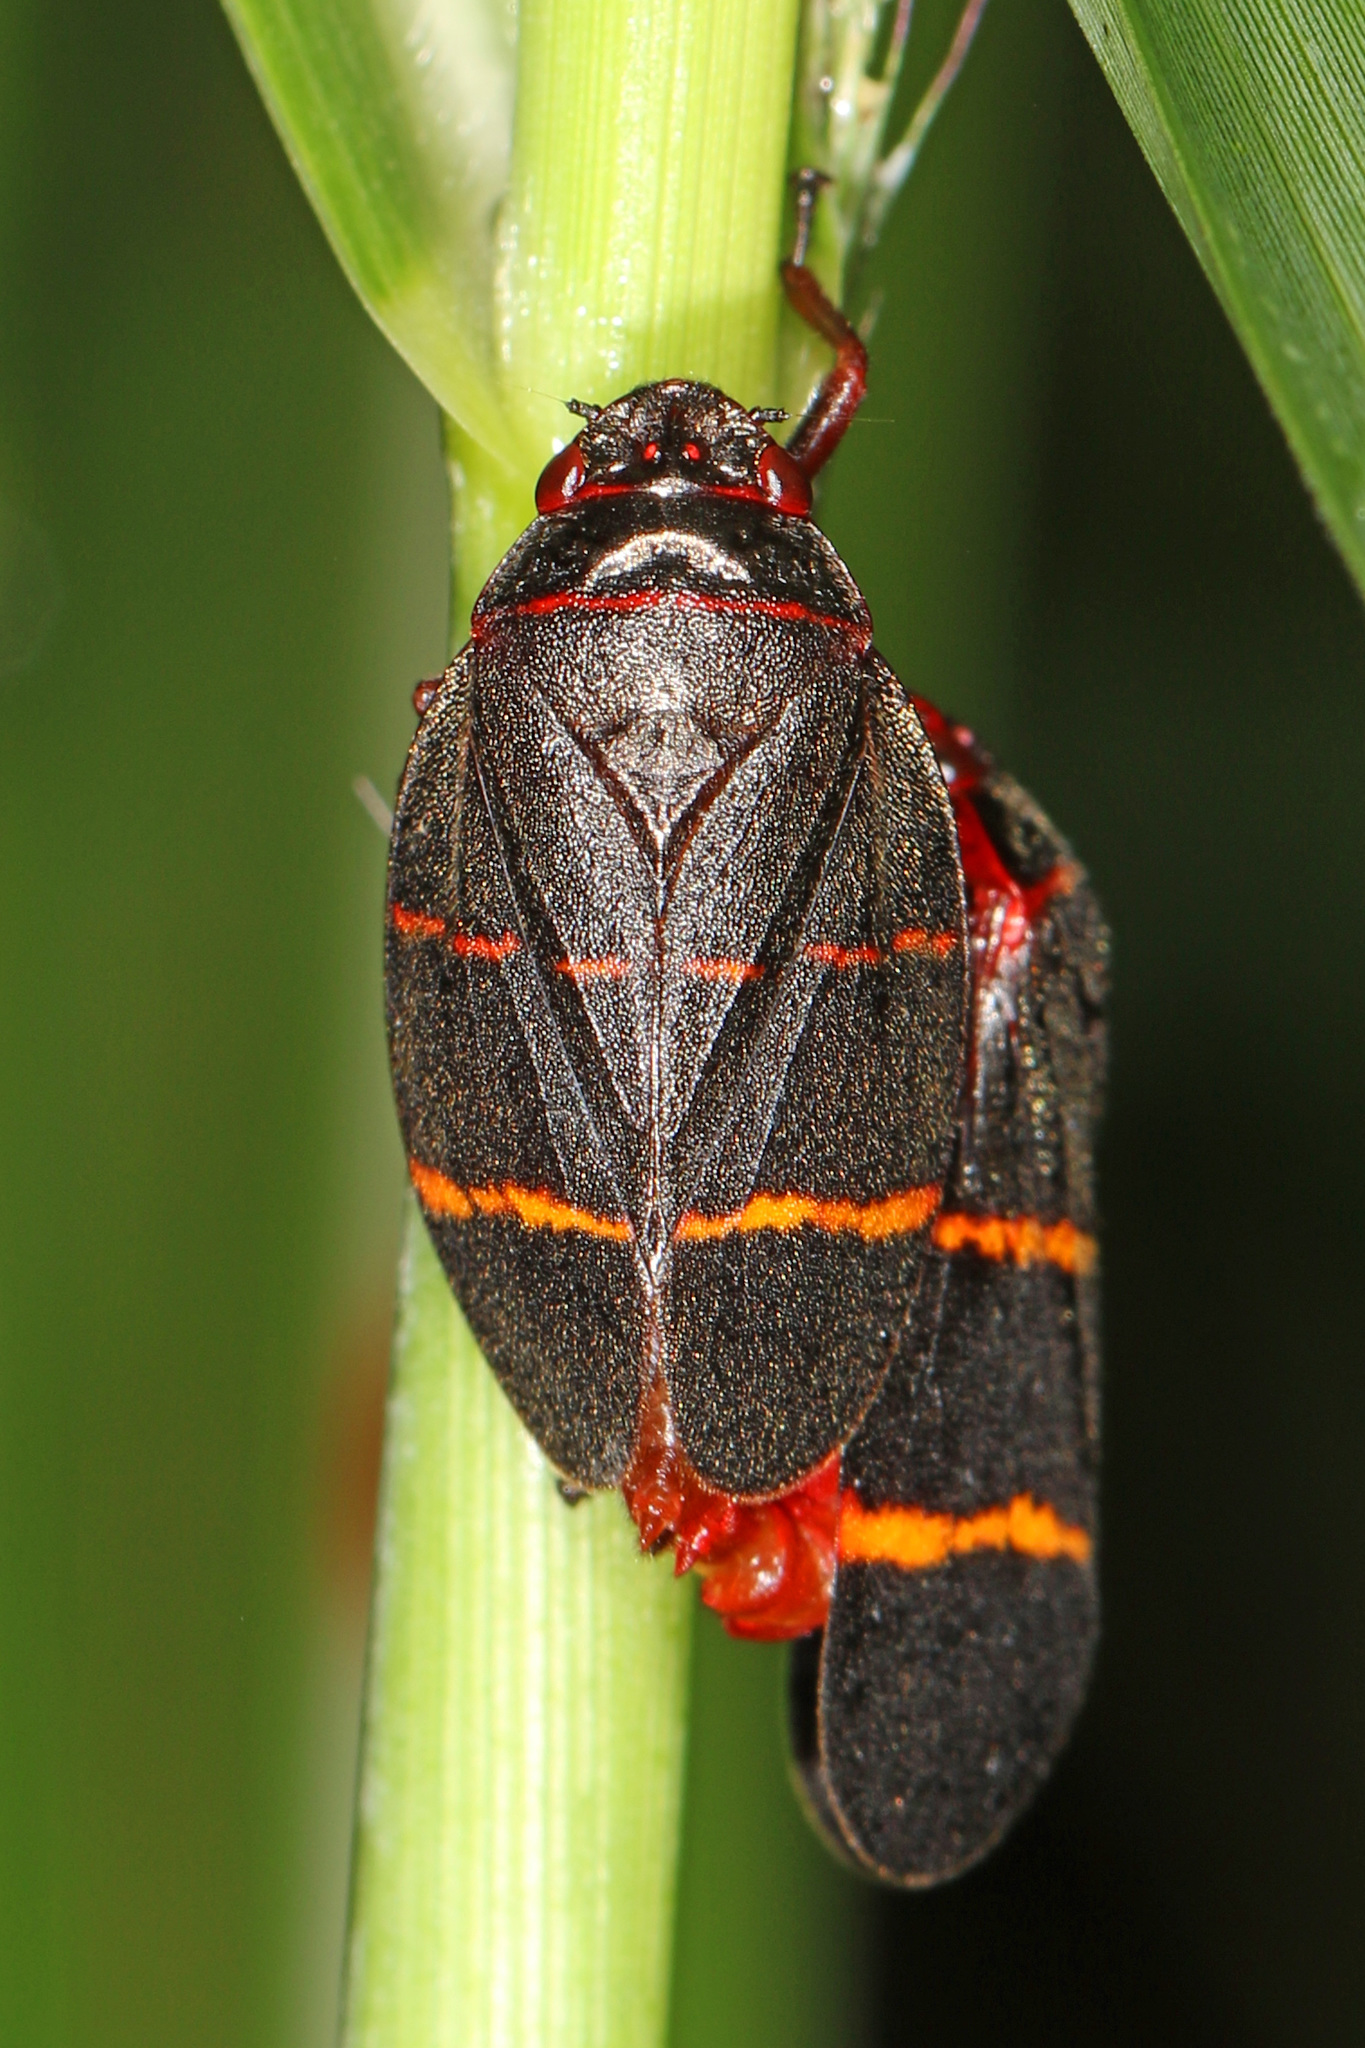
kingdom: Animalia
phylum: Arthropoda
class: Insecta
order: Hemiptera
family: Cercopidae
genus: Prosapia
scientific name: Prosapia bicincta
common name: Twolined spittlebug
